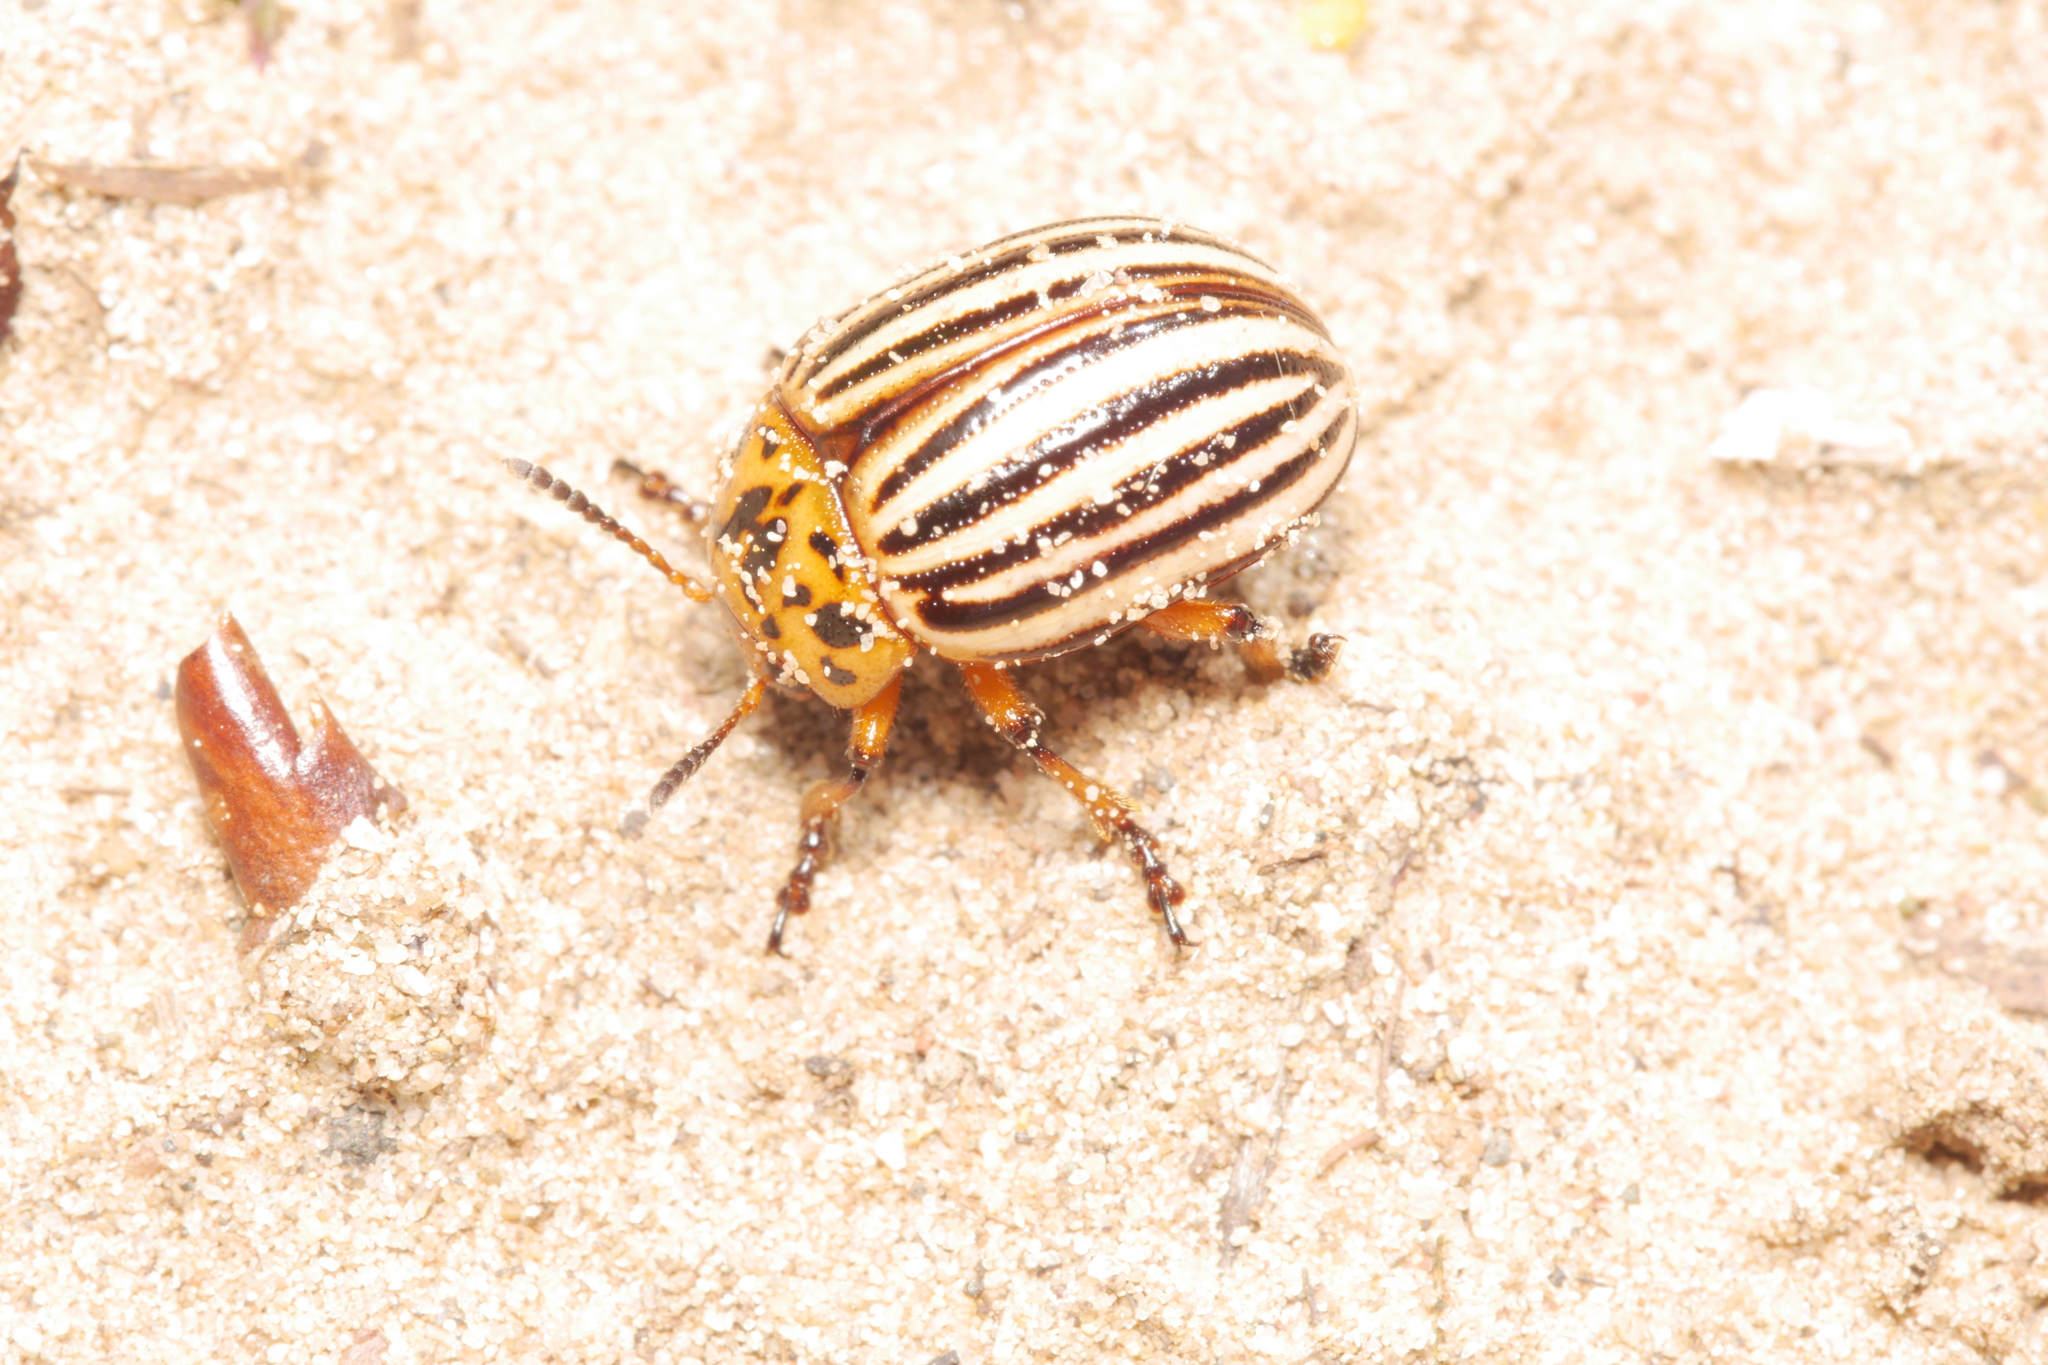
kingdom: Animalia
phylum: Arthropoda
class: Insecta
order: Coleoptera
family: Chrysomelidae
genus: Leptinotarsa
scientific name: Leptinotarsa decemlineata
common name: Colorado potato beetle
